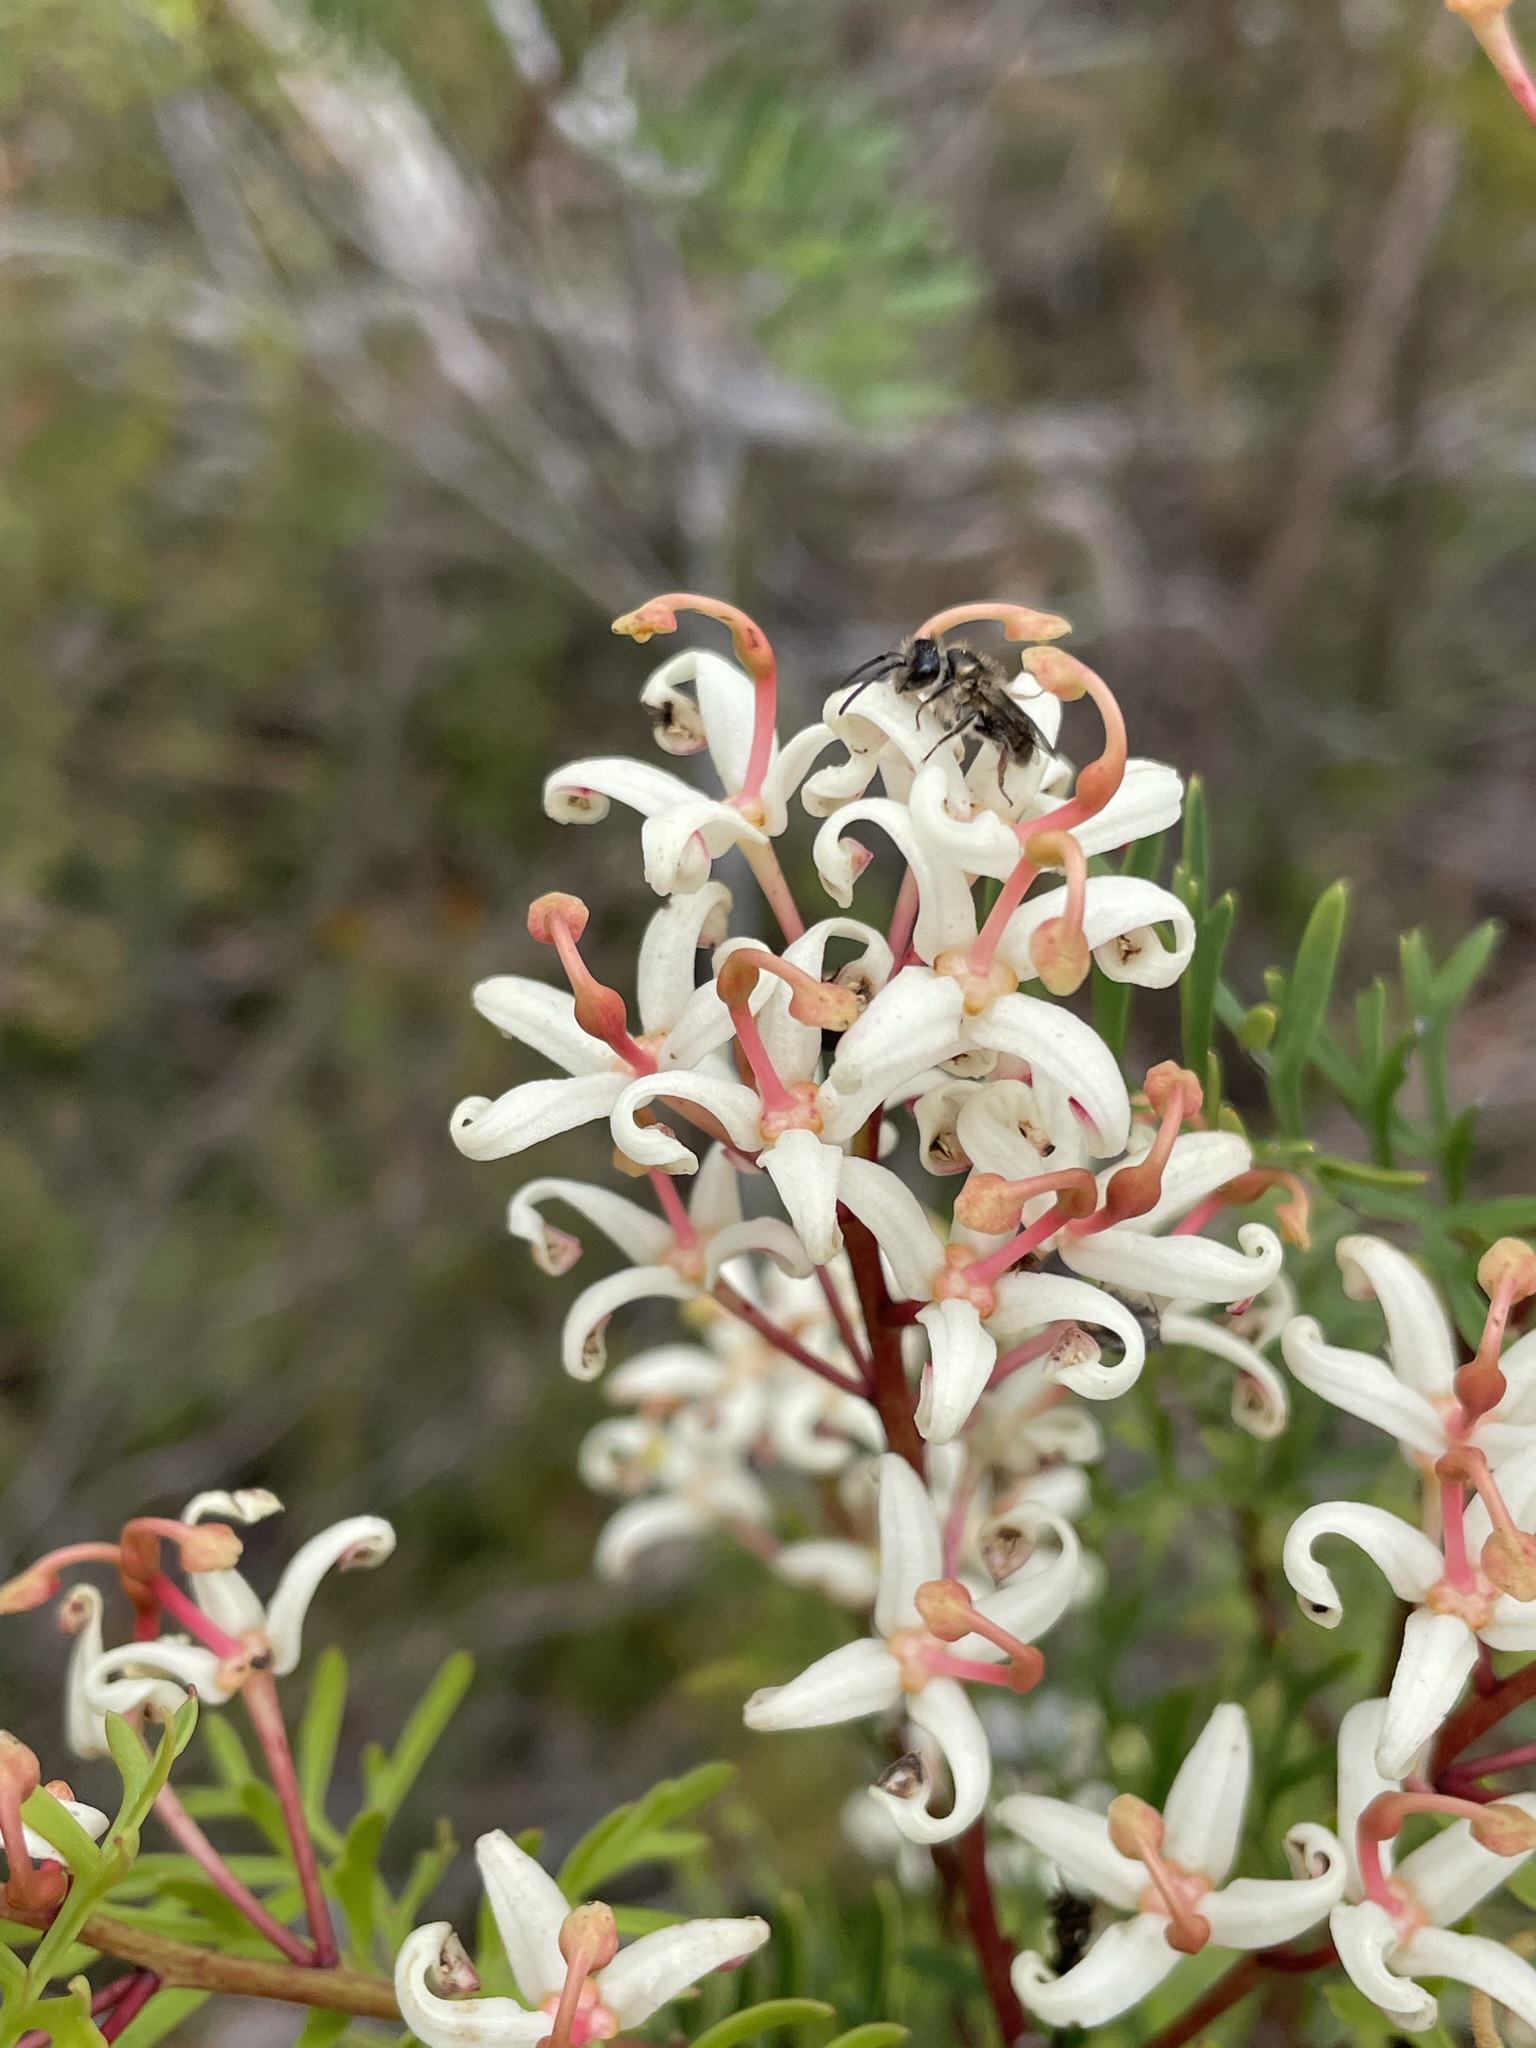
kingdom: Plantae
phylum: Tracheophyta
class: Magnoliopsida
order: Proteales
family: Proteaceae
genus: Lomatia
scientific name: Lomatia tinctoria
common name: Guitar plant
